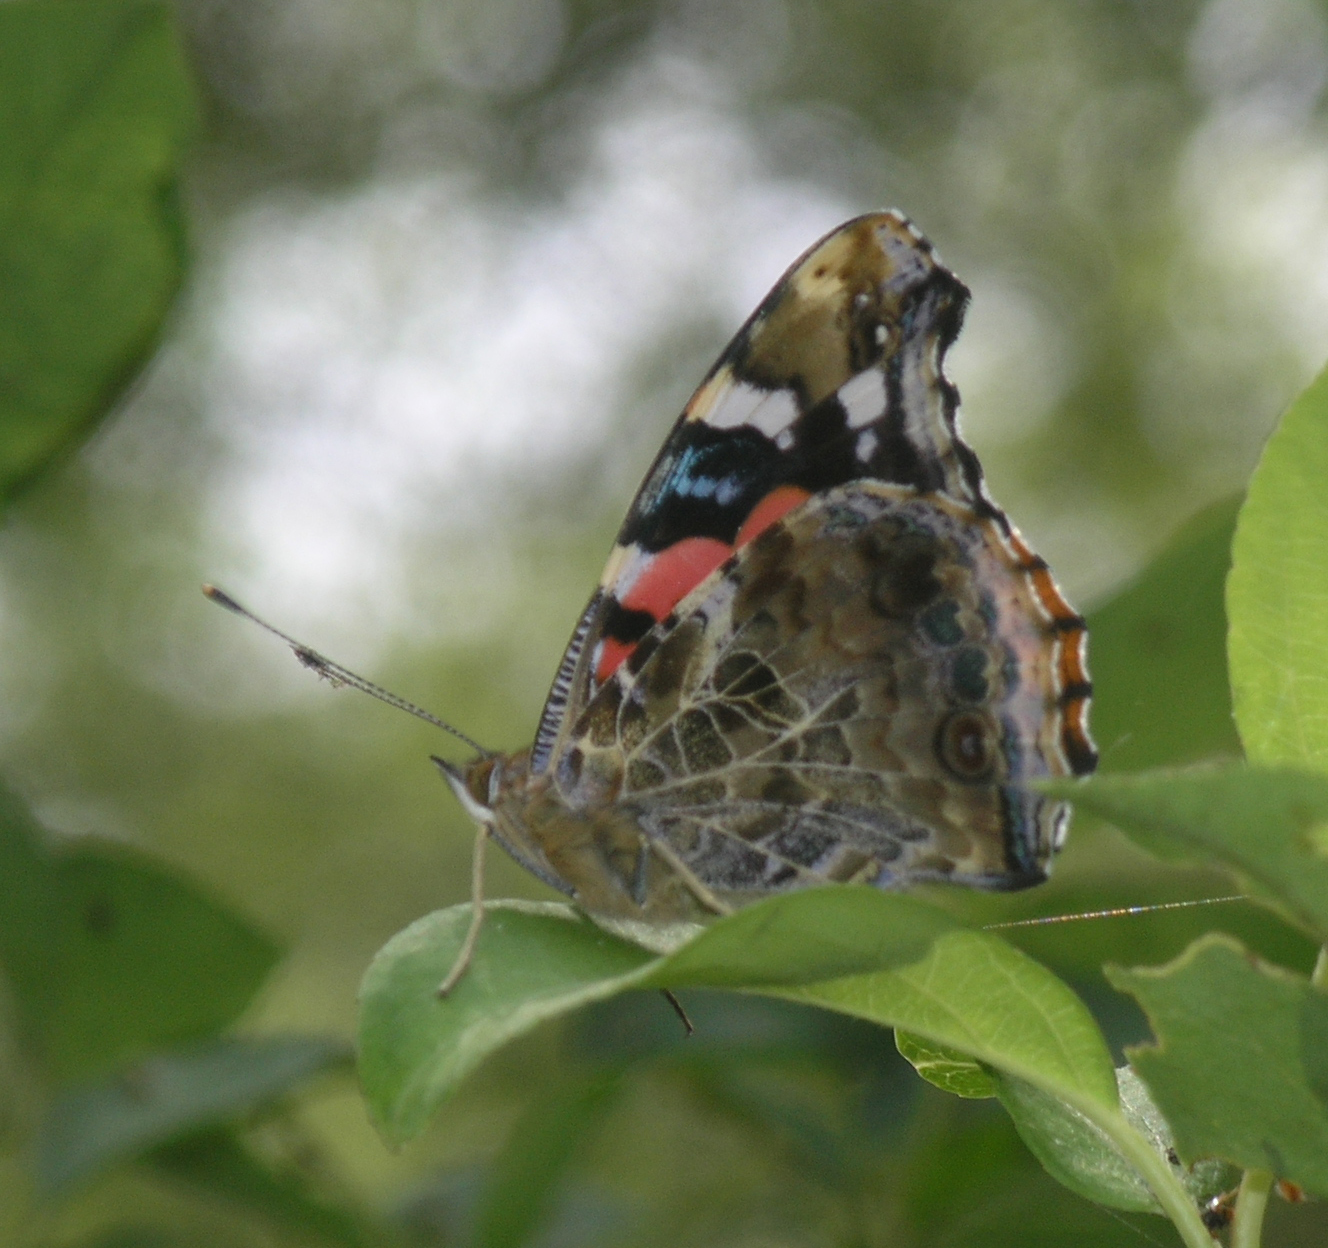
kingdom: Animalia
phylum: Arthropoda
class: Insecta
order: Lepidoptera
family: Nymphalidae
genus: Vanessa
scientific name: Vanessa indica
